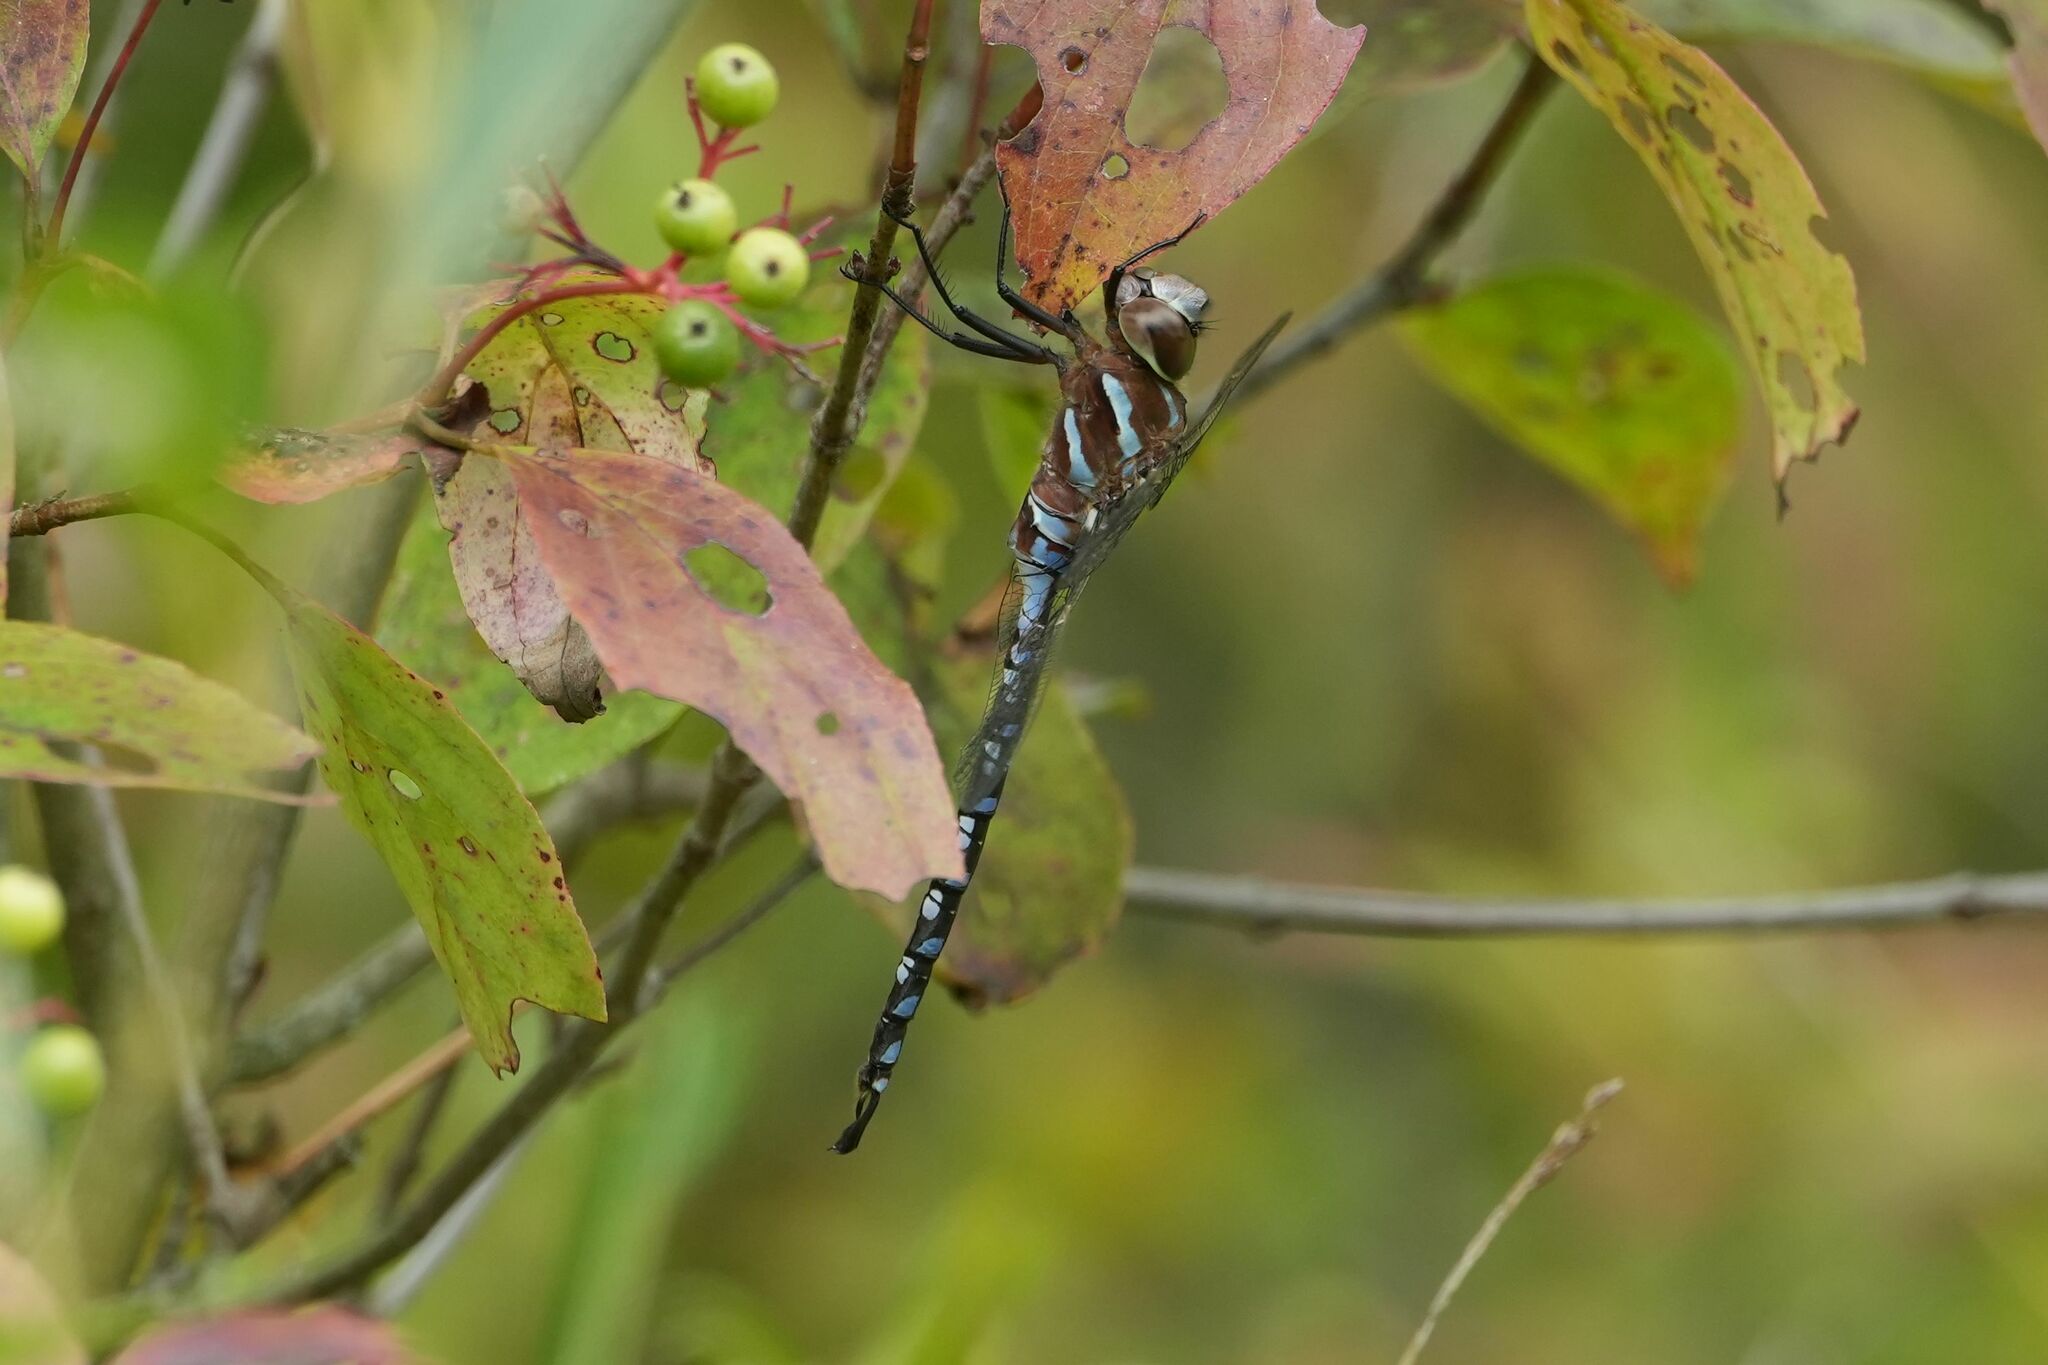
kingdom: Animalia
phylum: Arthropoda
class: Insecta
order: Odonata
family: Aeshnidae
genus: Aeshna
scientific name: Aeshna constricta
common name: Lance-tipped darner
